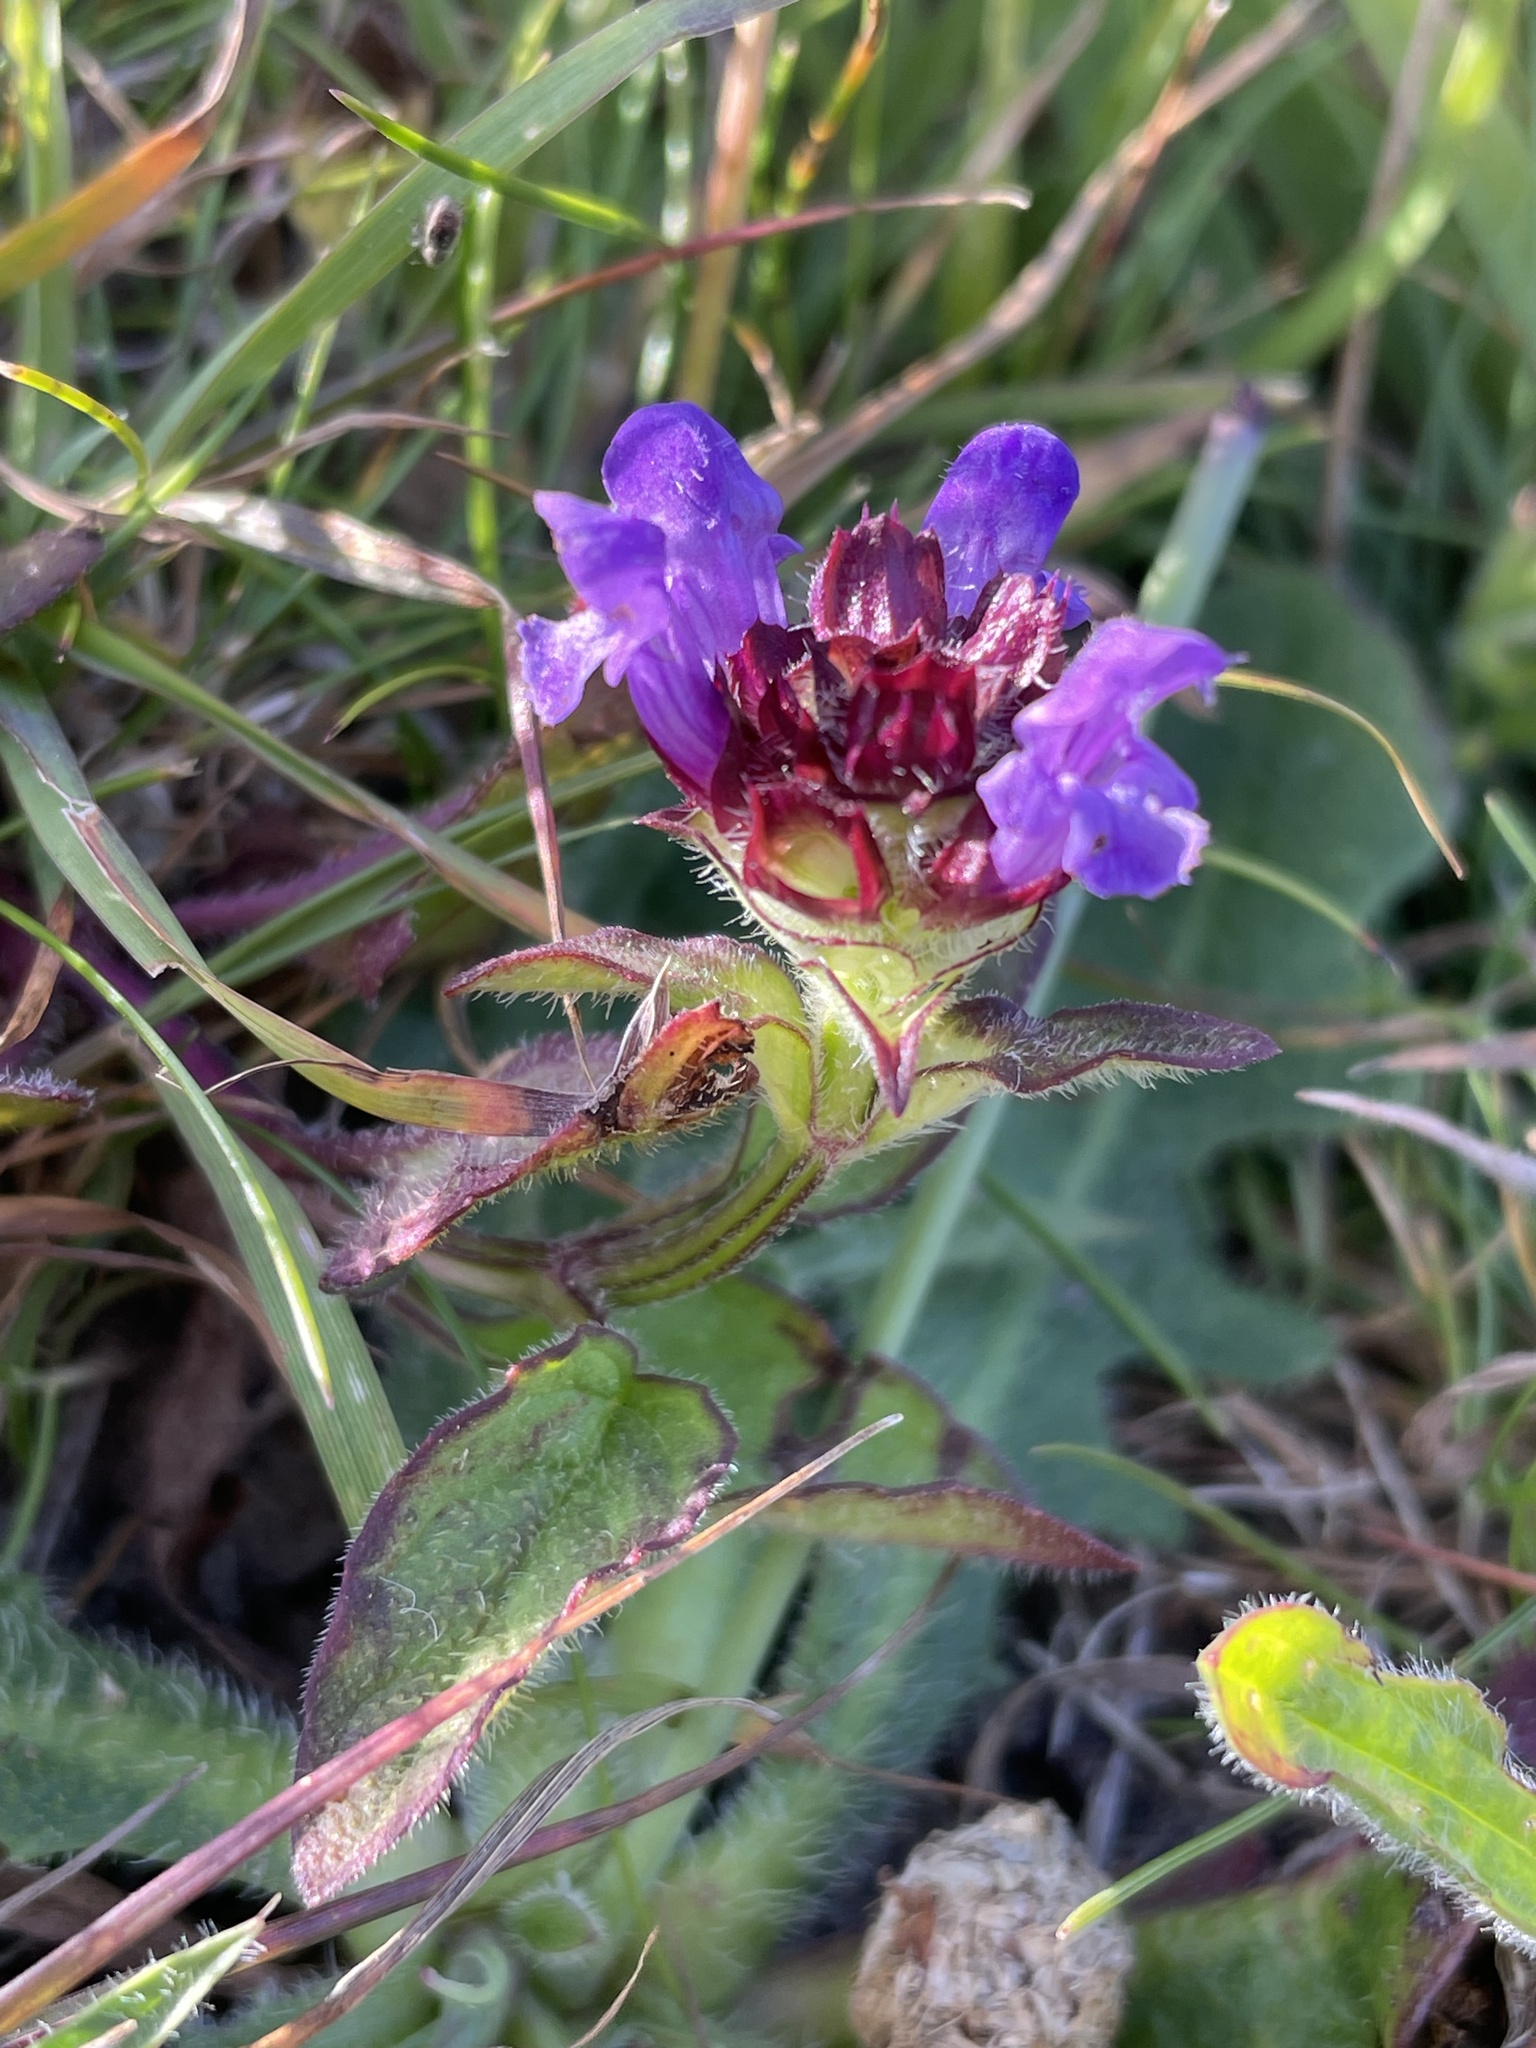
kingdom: Plantae
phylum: Tracheophyta
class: Magnoliopsida
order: Lamiales
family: Lamiaceae
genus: Prunella
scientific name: Prunella vulgaris
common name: Heal-all
